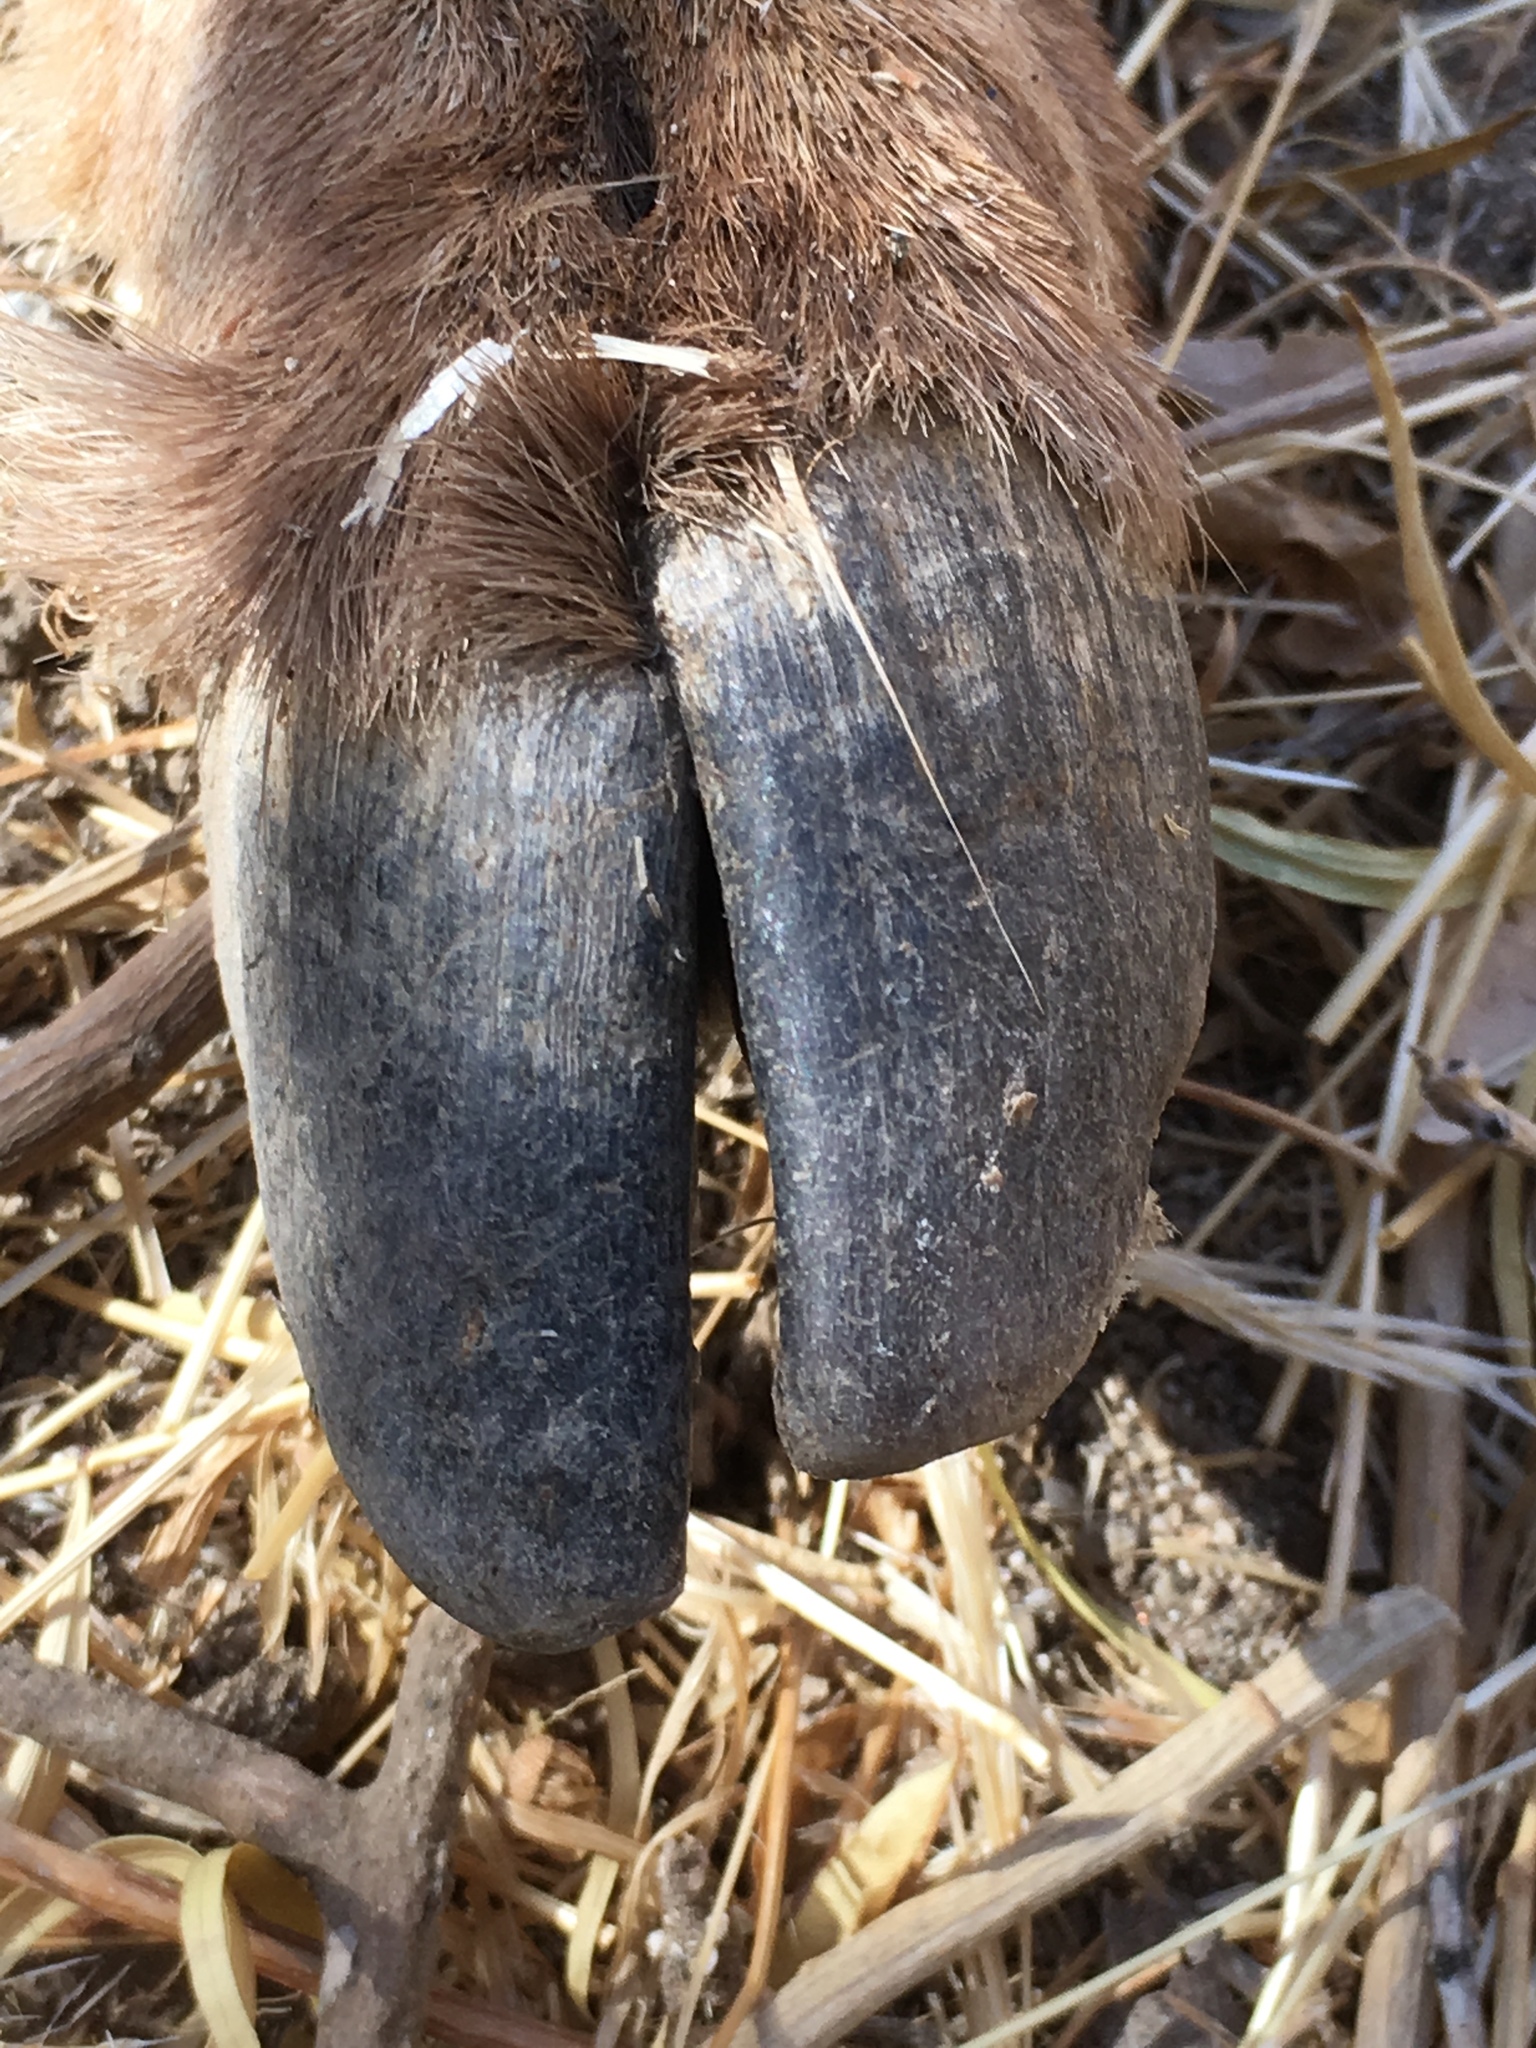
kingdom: Animalia
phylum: Chordata
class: Mammalia
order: Artiodactyla
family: Bovidae
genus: Ovis
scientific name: Ovis canadensis
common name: Bighorn sheep
